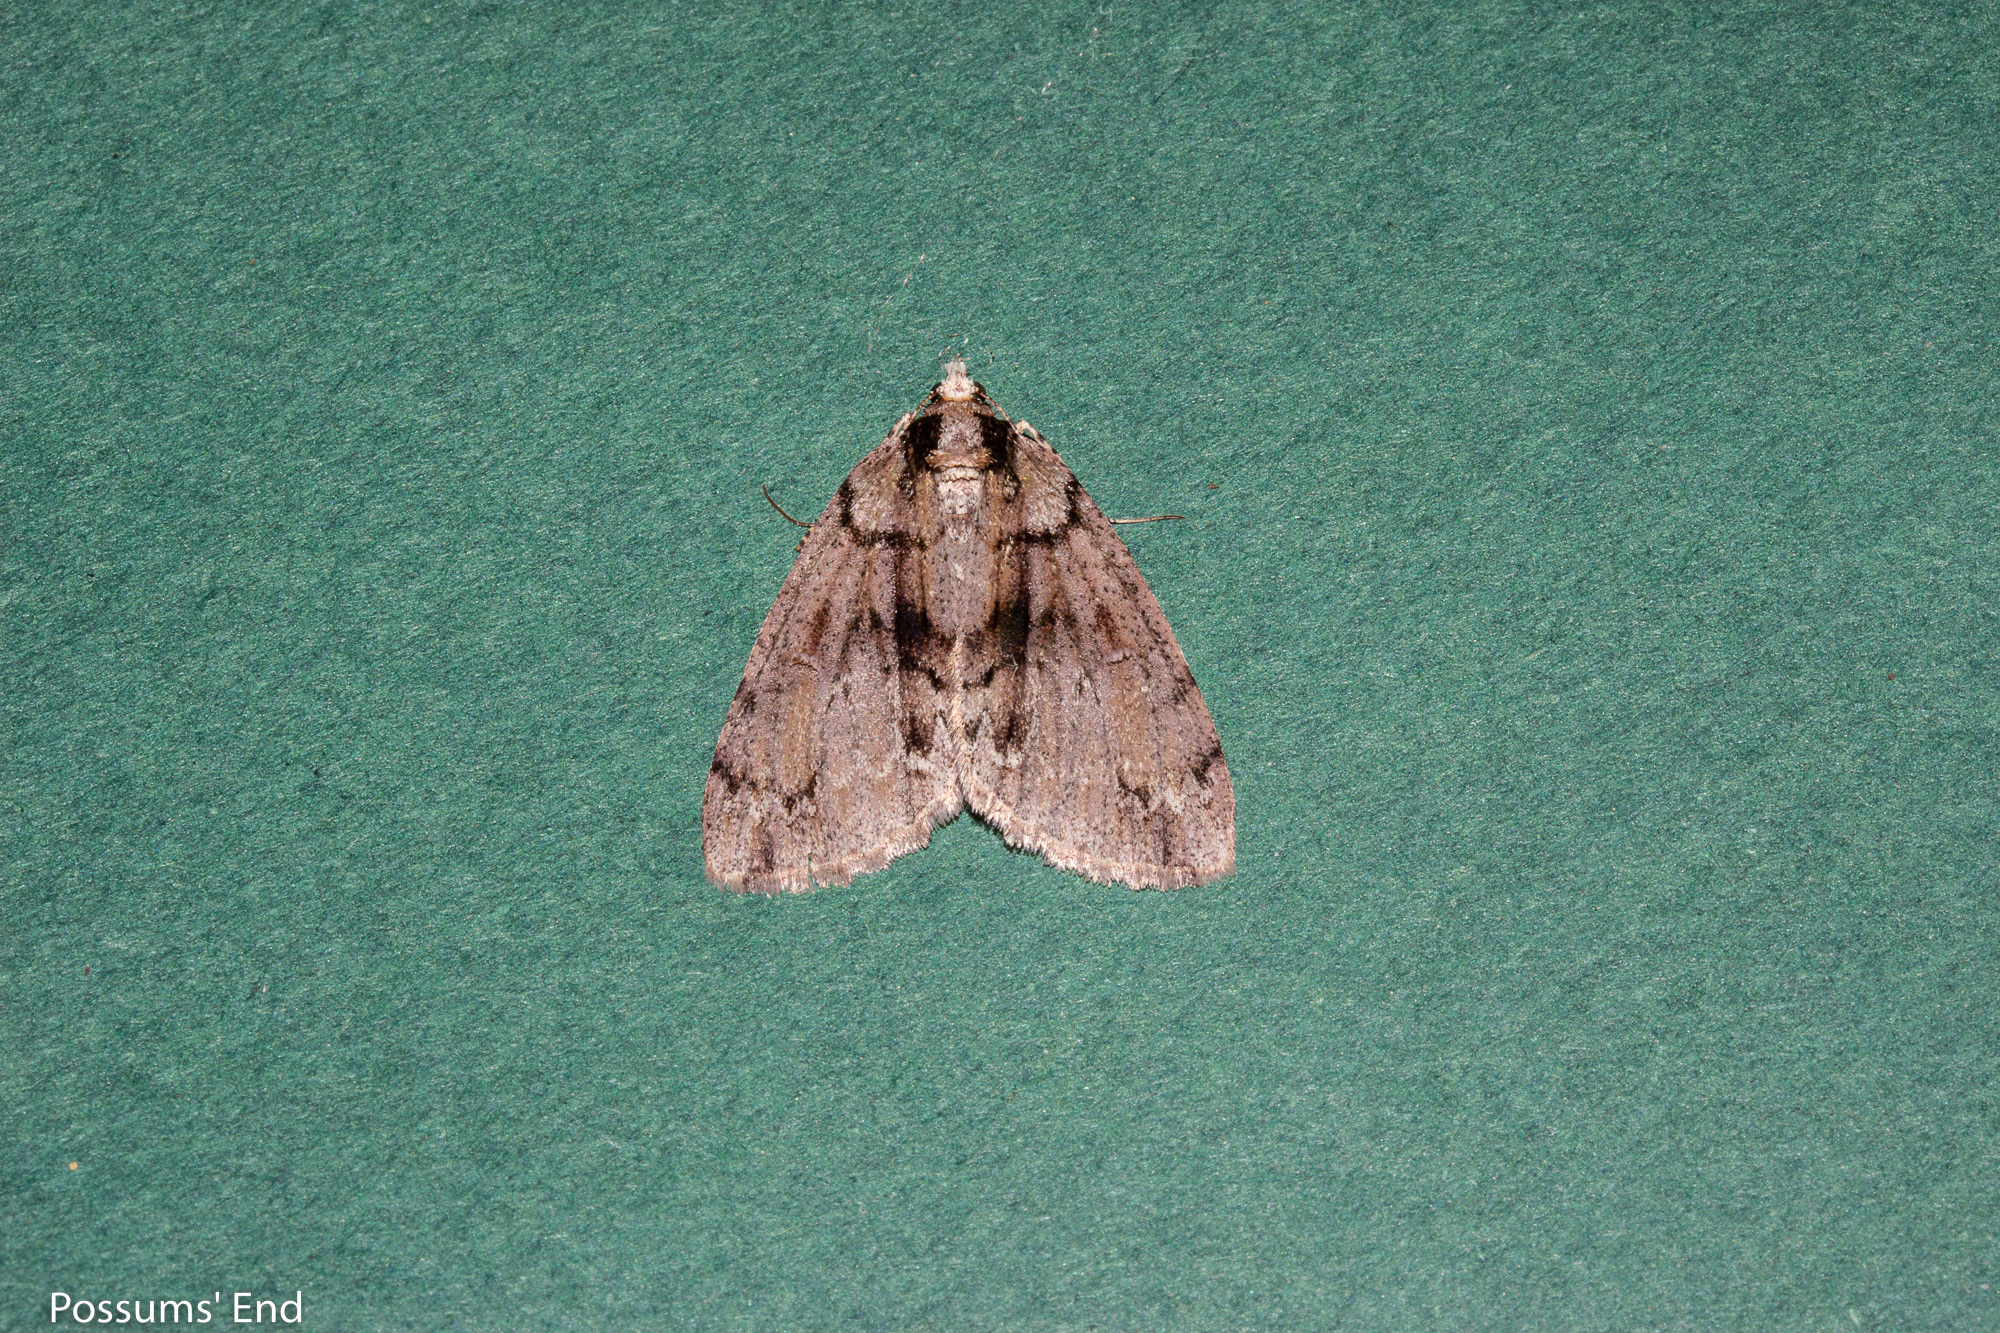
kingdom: Animalia
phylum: Arthropoda
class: Insecta
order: Lepidoptera
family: Geometridae
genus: Pseudocoremia
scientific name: Pseudocoremia suavis
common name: Common forest looper
